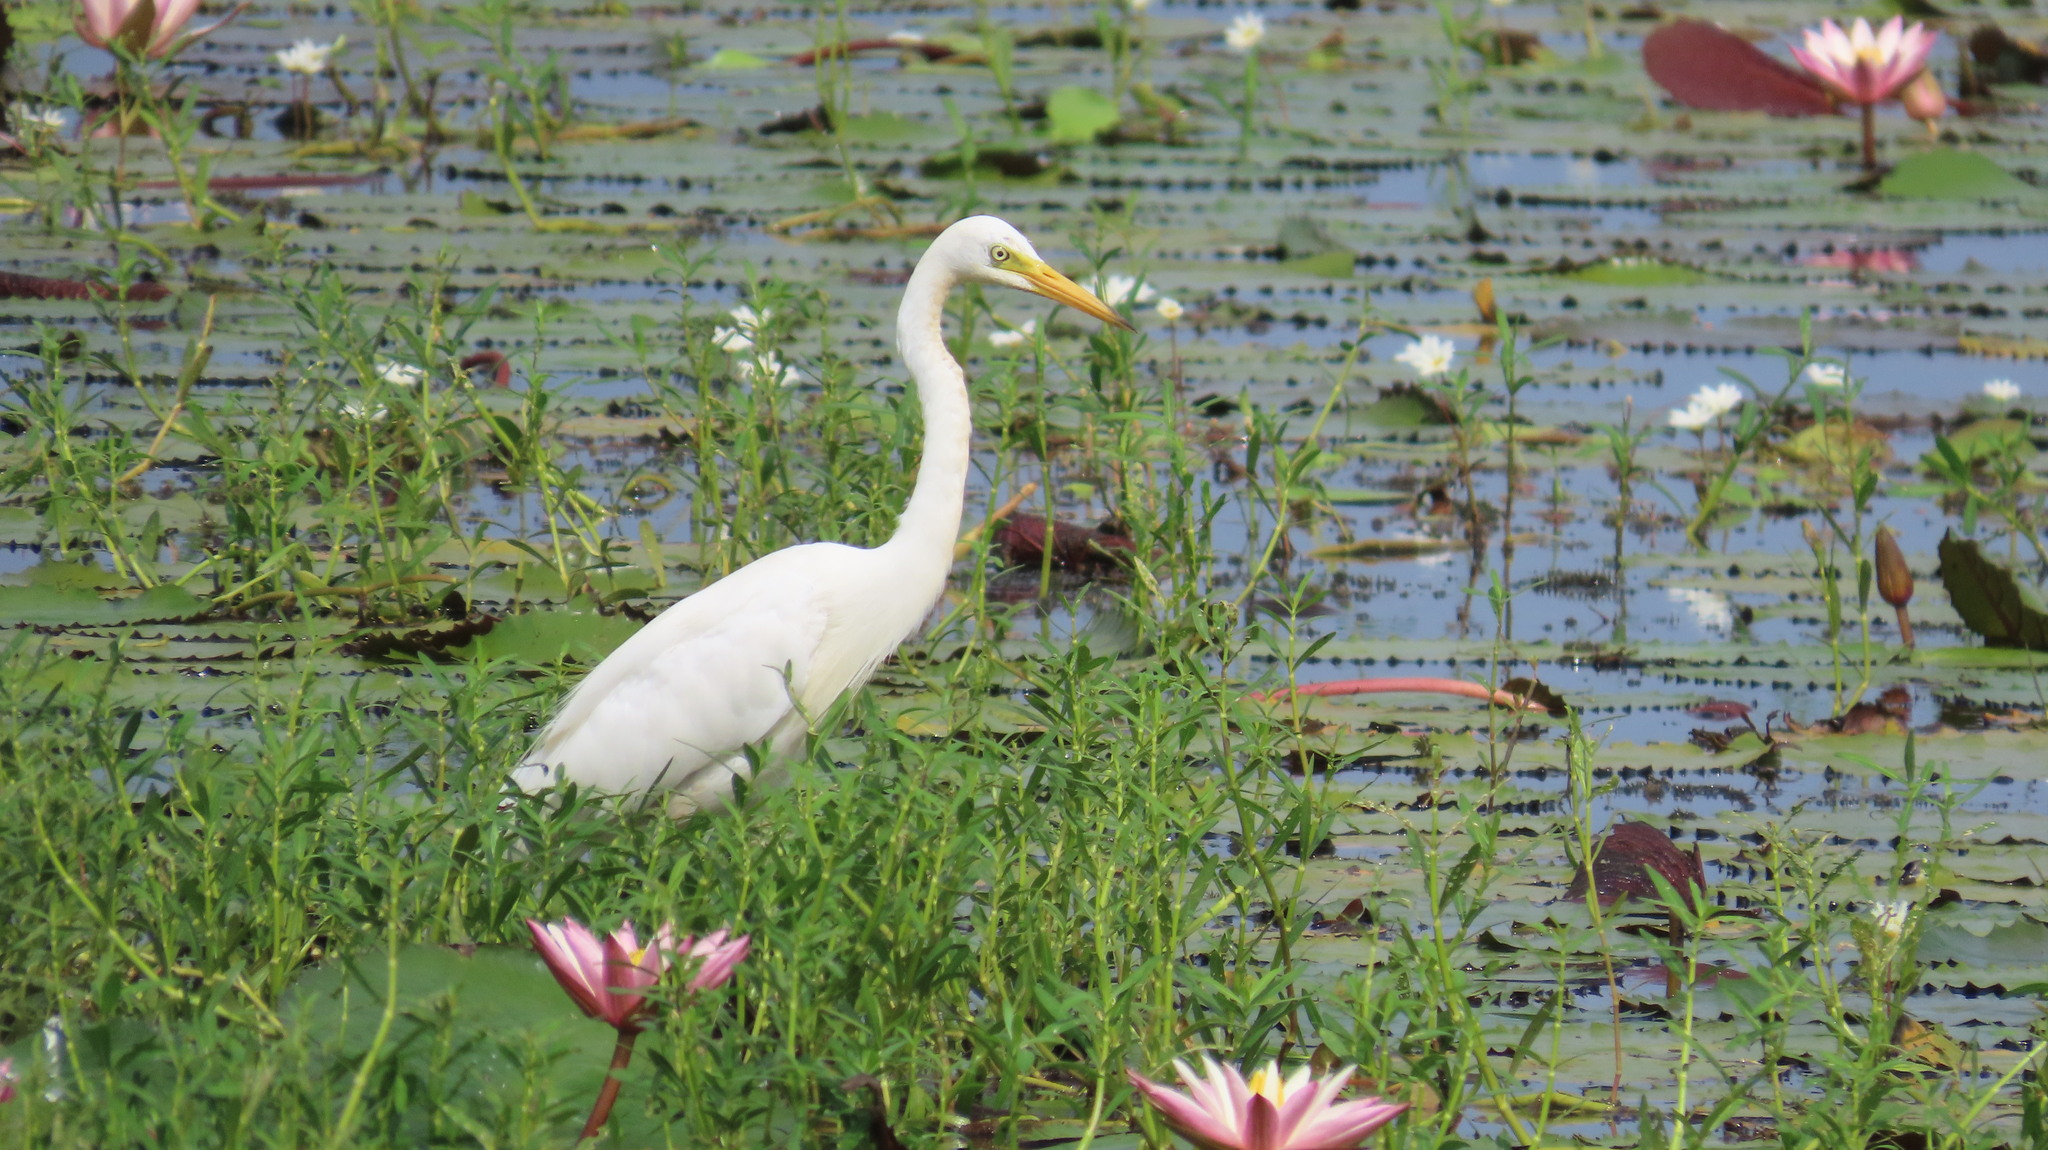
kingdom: Animalia
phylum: Chordata
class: Aves
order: Pelecaniformes
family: Ardeidae
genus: Egretta
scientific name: Egretta intermedia
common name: Intermediate egret
